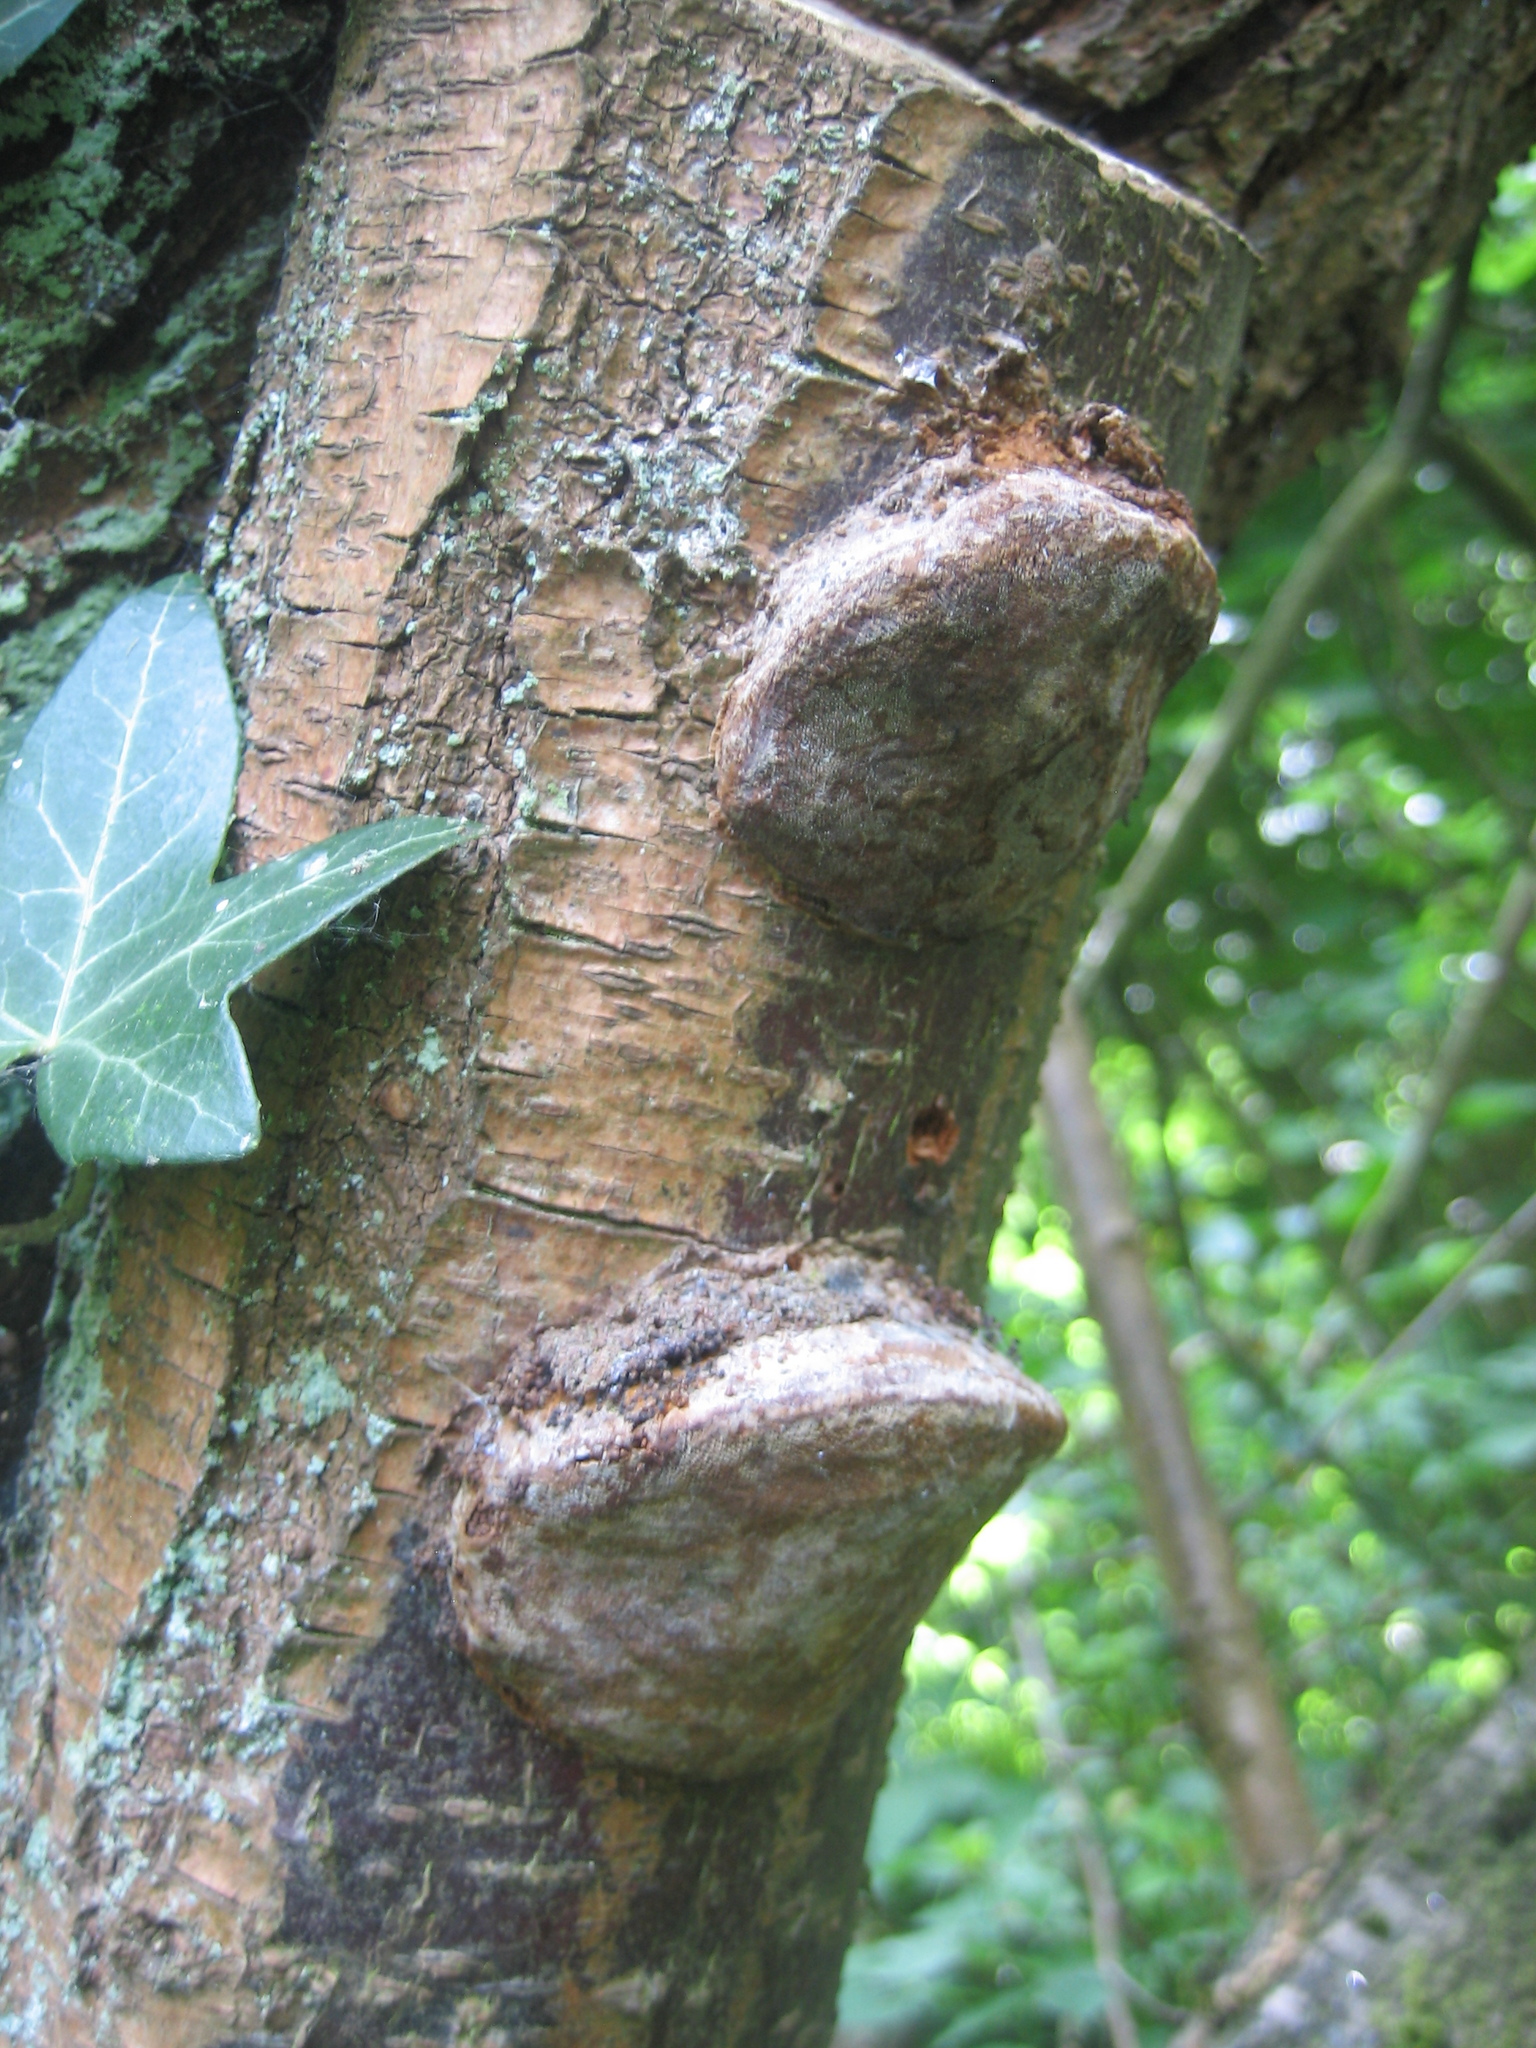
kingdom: Fungi
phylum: Basidiomycota
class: Agaricomycetes
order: Hymenochaetales
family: Hymenochaetaceae
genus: Phellinus
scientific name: Phellinus pomaceus
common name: Cushion bracket
